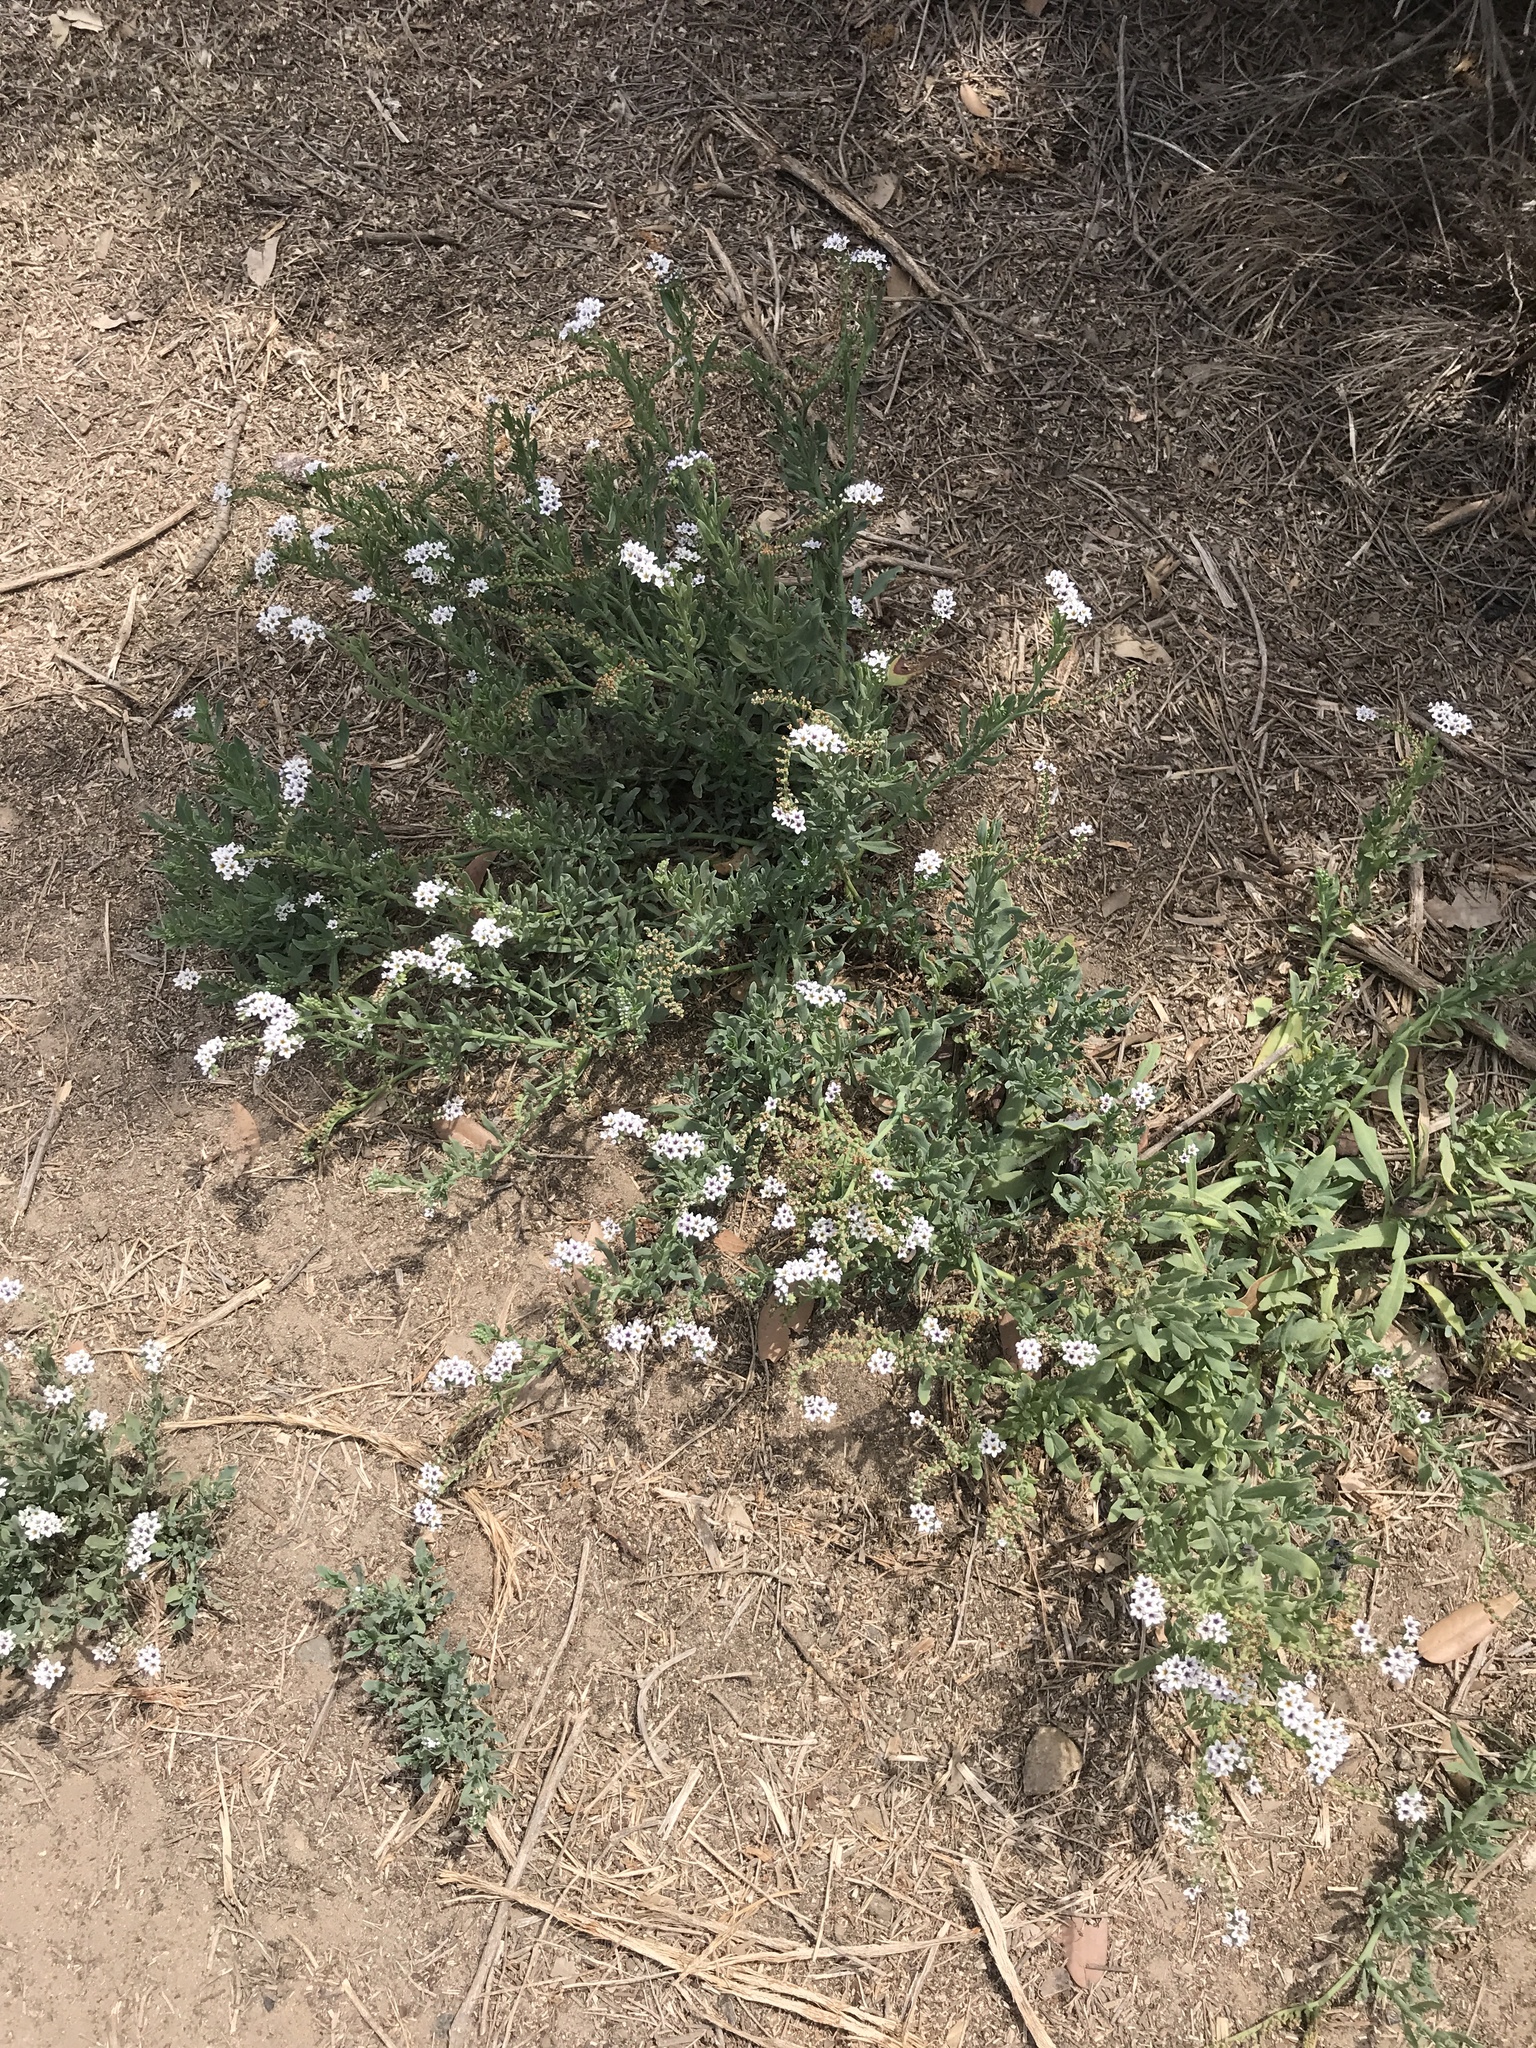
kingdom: Plantae
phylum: Tracheophyta
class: Magnoliopsida
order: Boraginales
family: Heliotropiaceae
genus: Heliotropium
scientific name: Heliotropium curassavicum
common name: Seaside heliotrope
